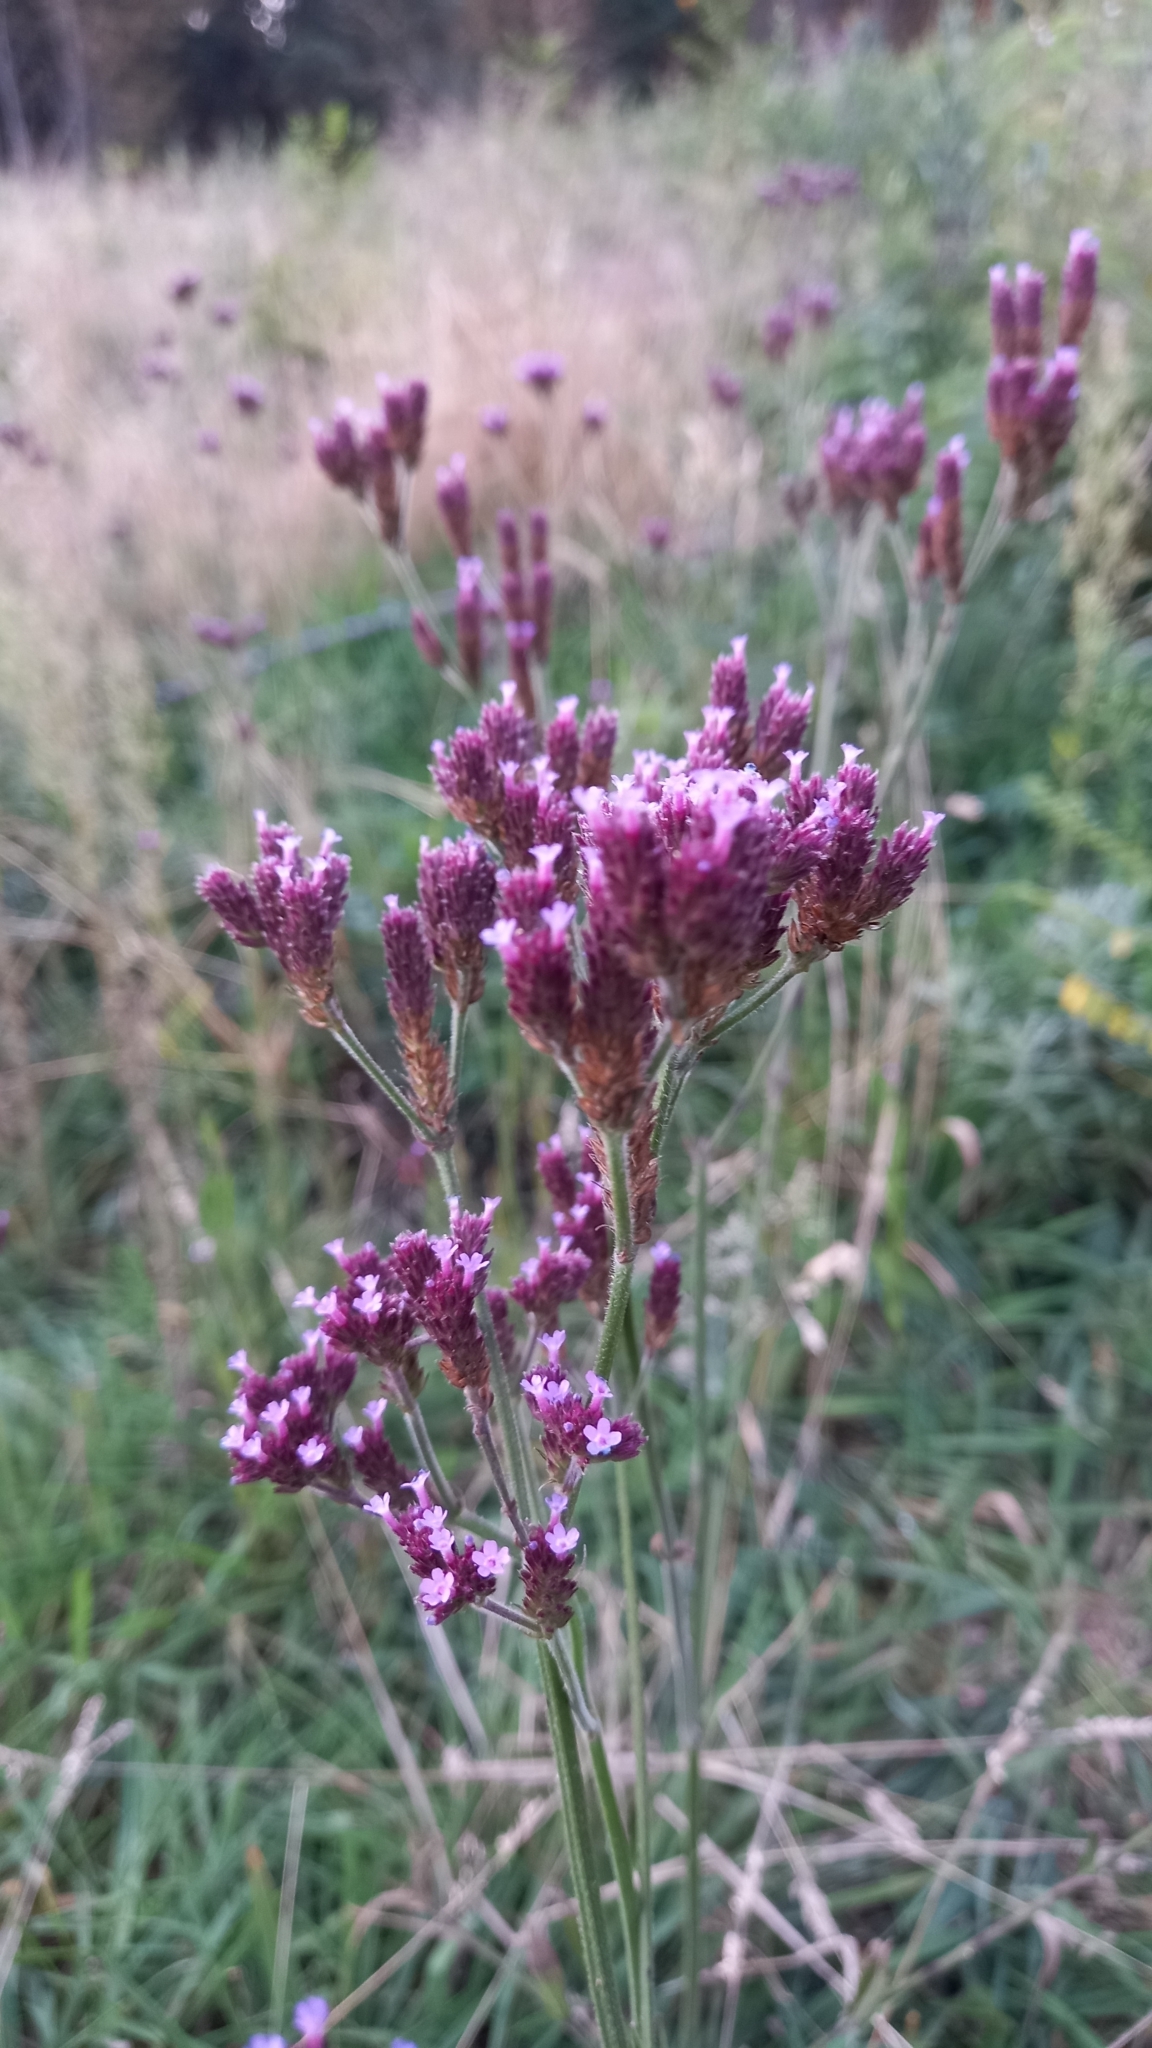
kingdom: Plantae
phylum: Tracheophyta
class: Magnoliopsida
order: Lamiales
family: Verbenaceae
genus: Verbena
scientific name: Verbena bonariensis
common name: Purpletop vervain
